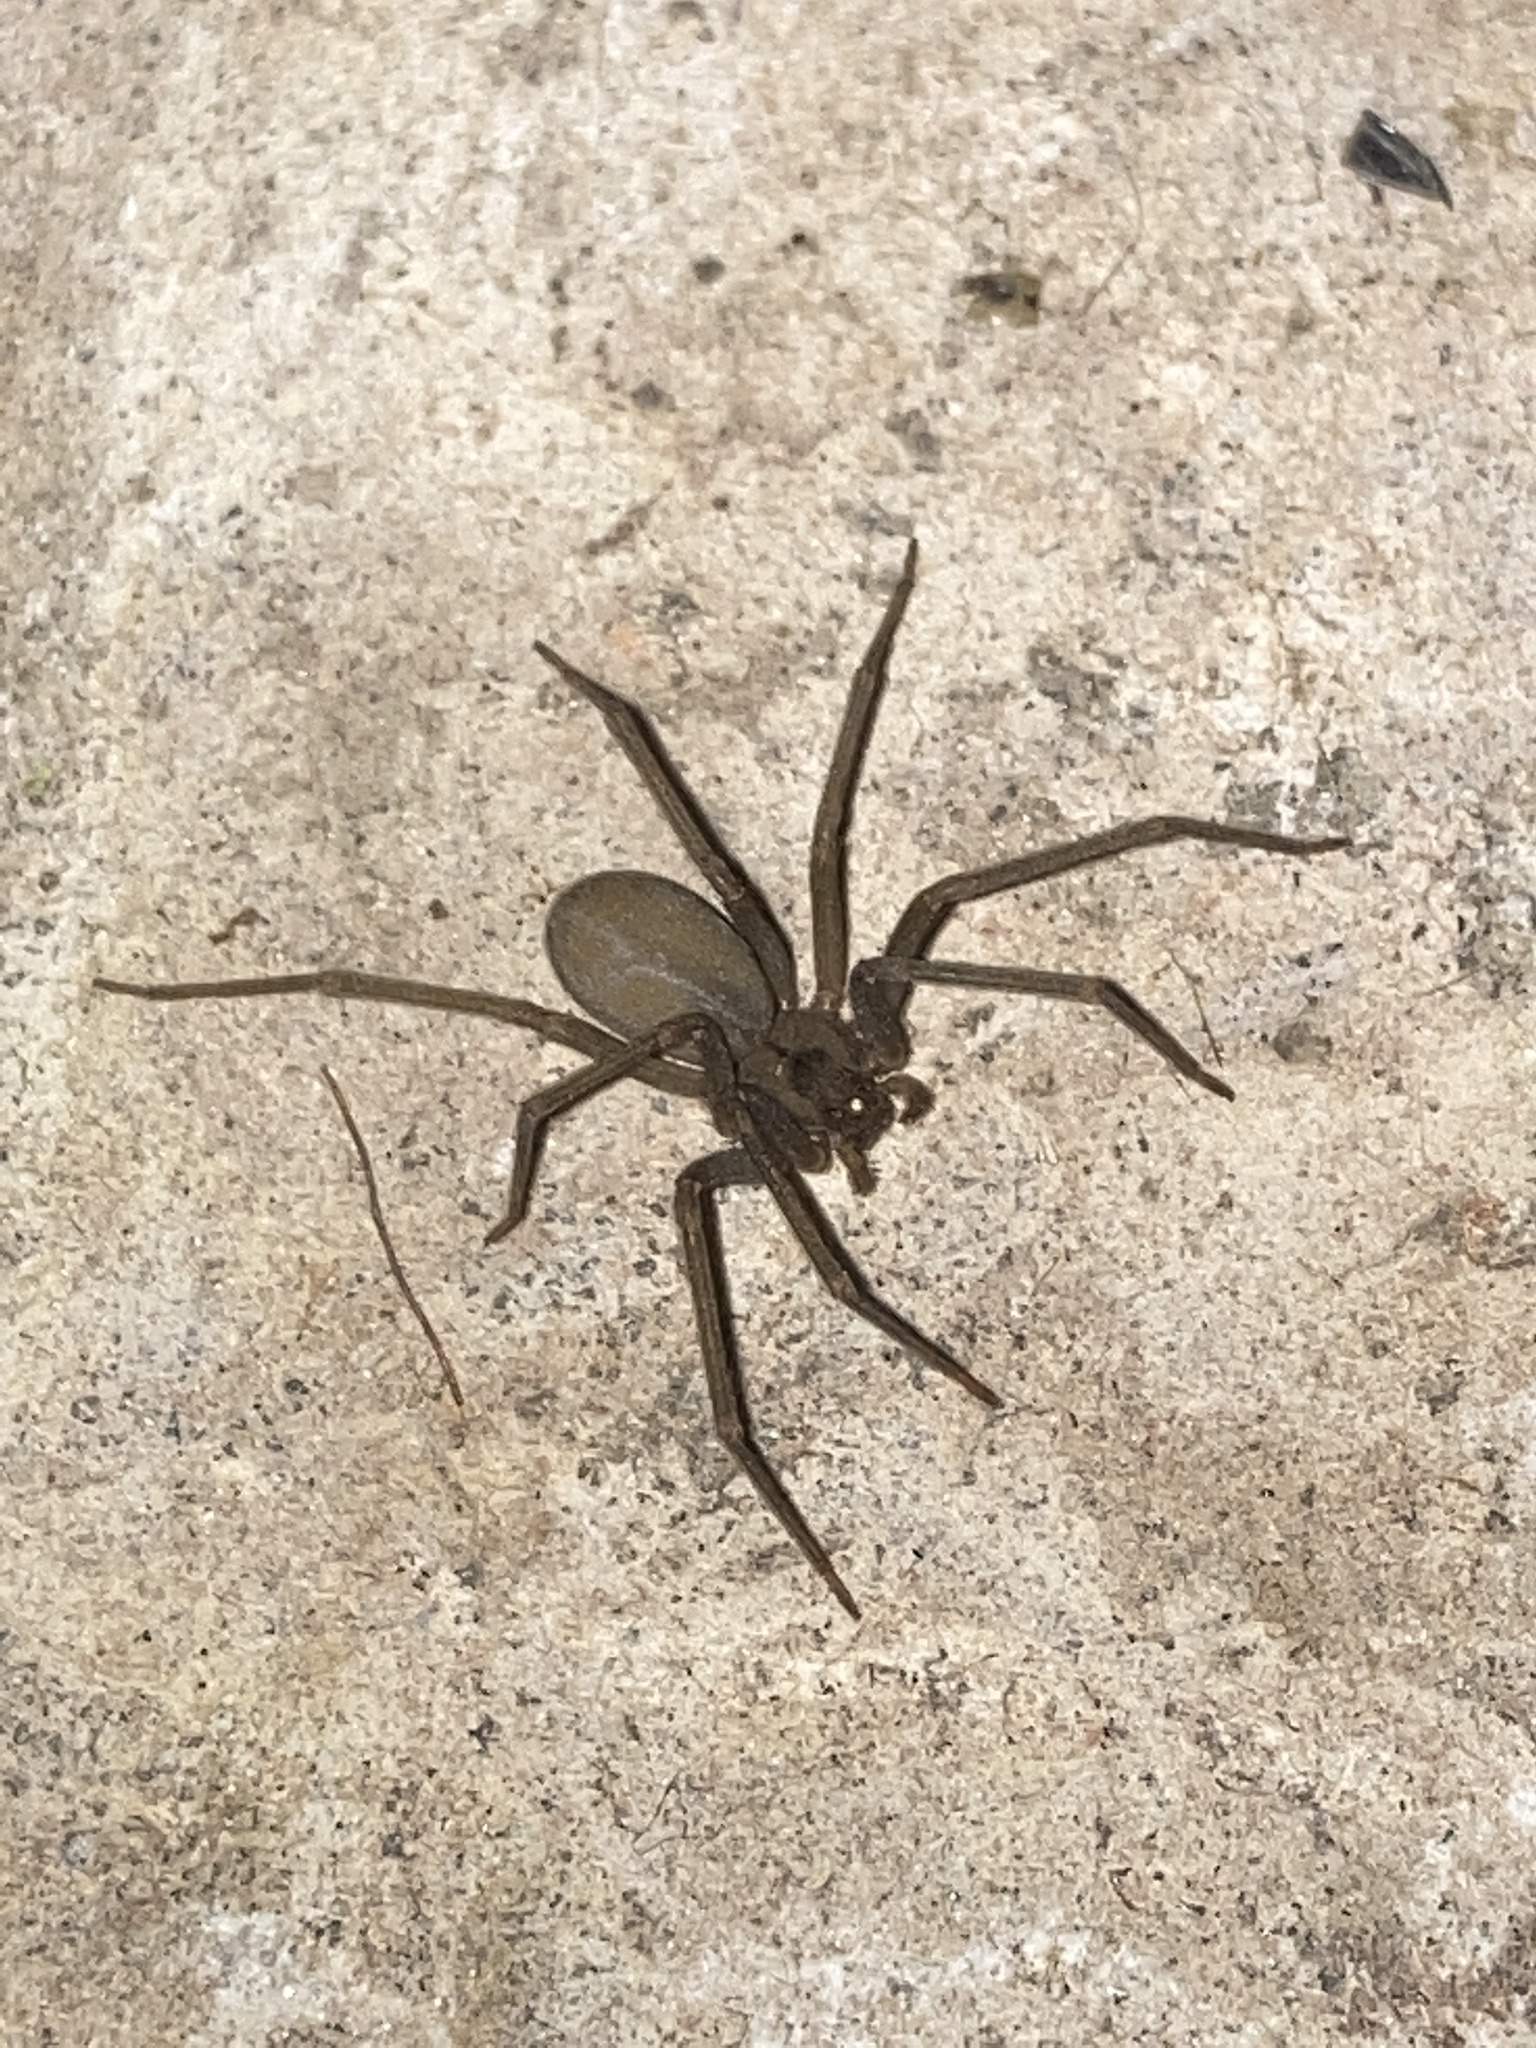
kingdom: Animalia
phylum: Arthropoda
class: Arachnida
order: Araneae
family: Sicariidae
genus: Loxosceles
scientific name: Loxosceles reclusa
